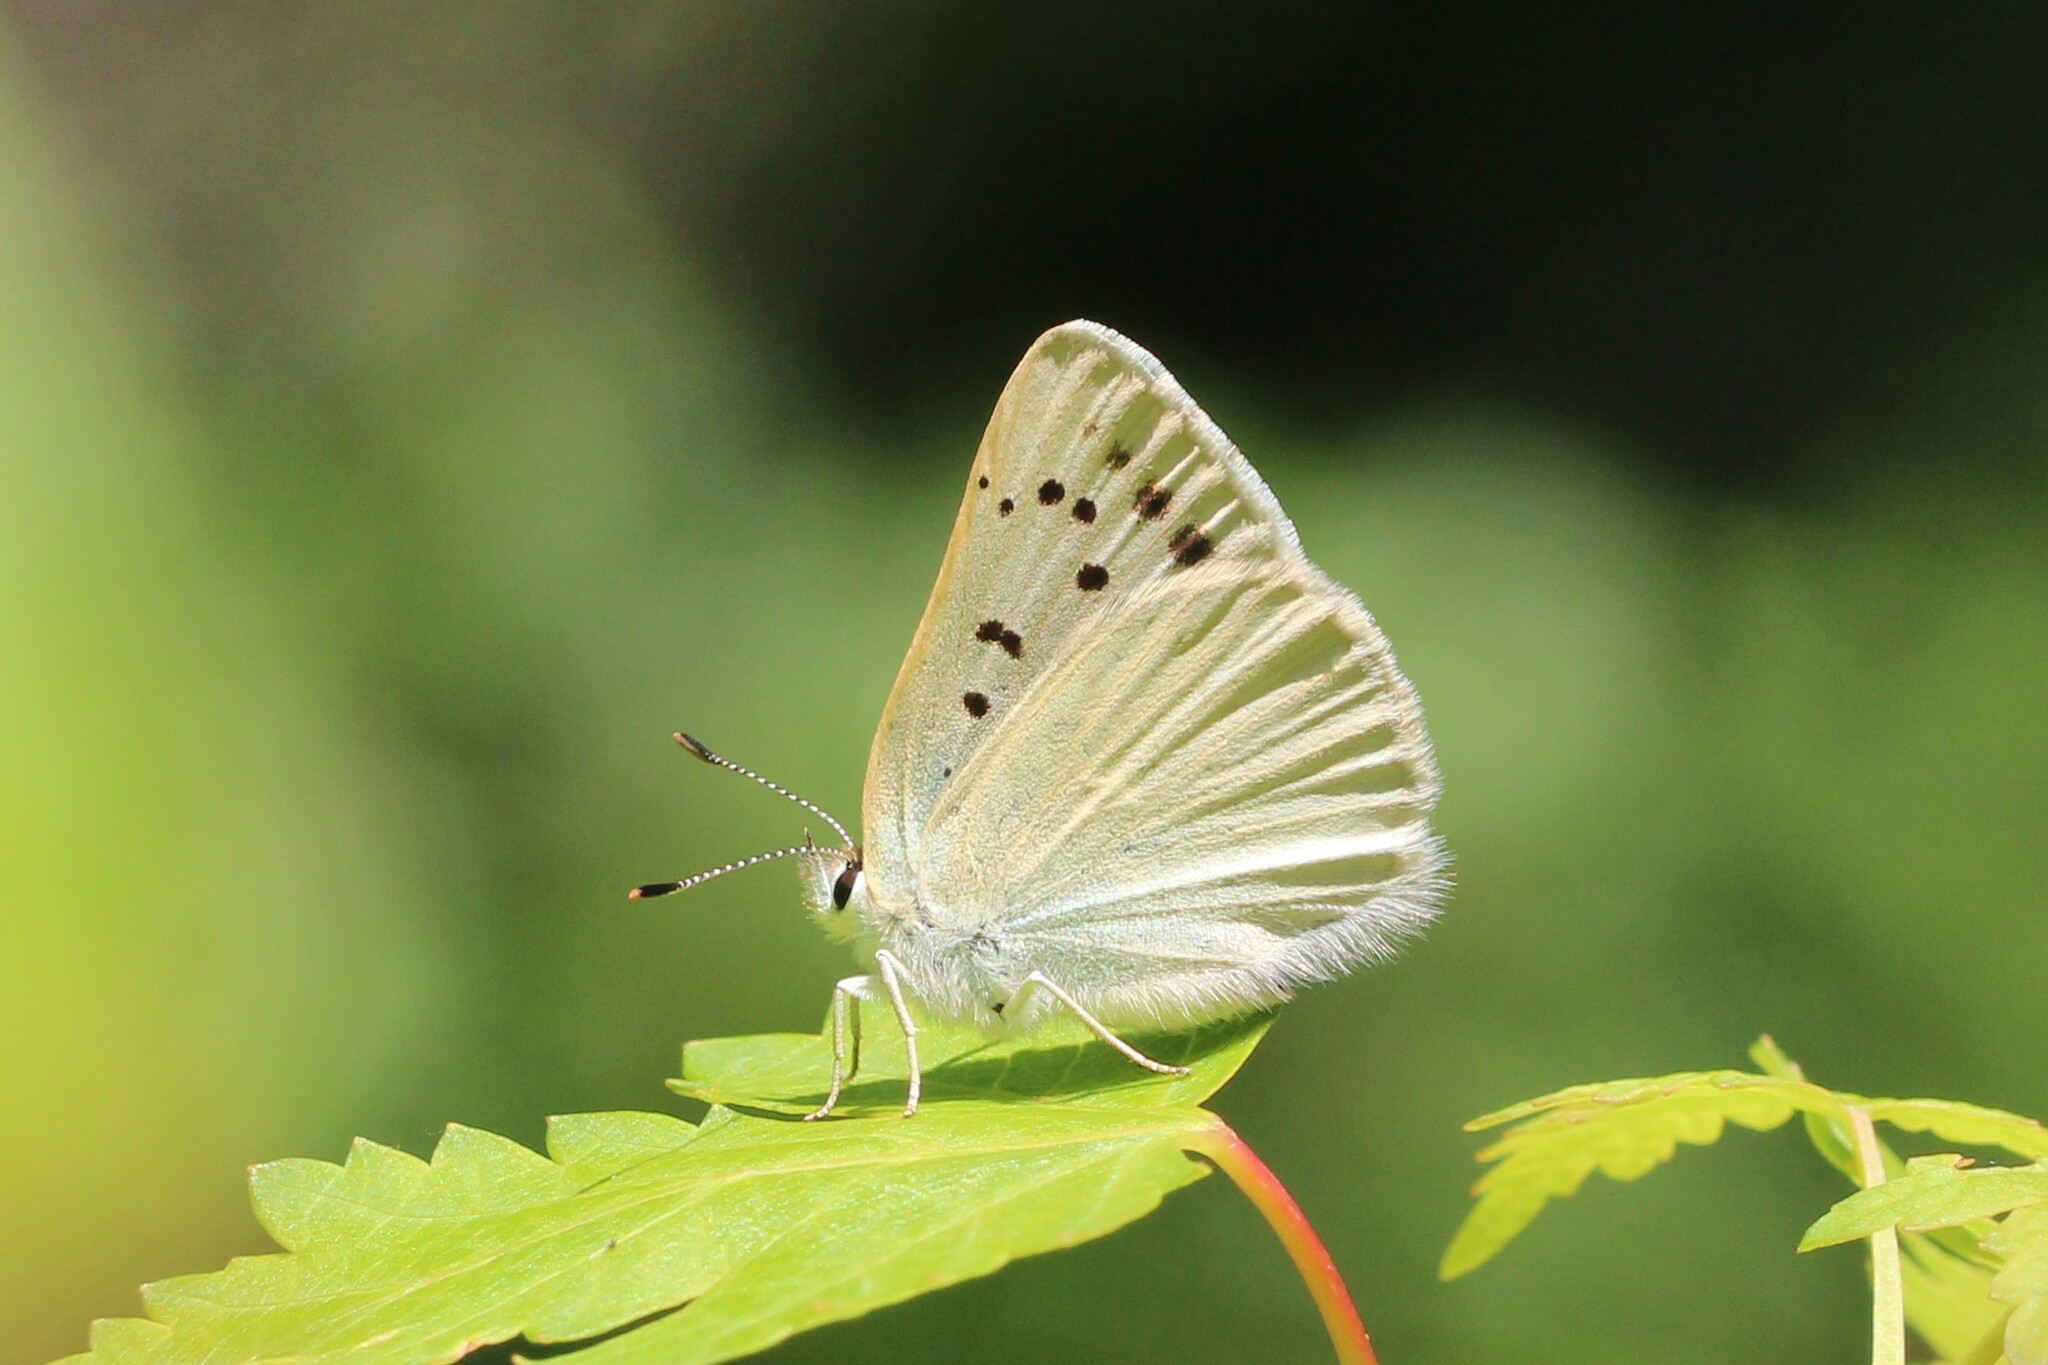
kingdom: Animalia
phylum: Arthropoda
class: Insecta
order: Lepidoptera
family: Lycaenidae
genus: Tharsalea
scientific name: Tharsalea heteronea
